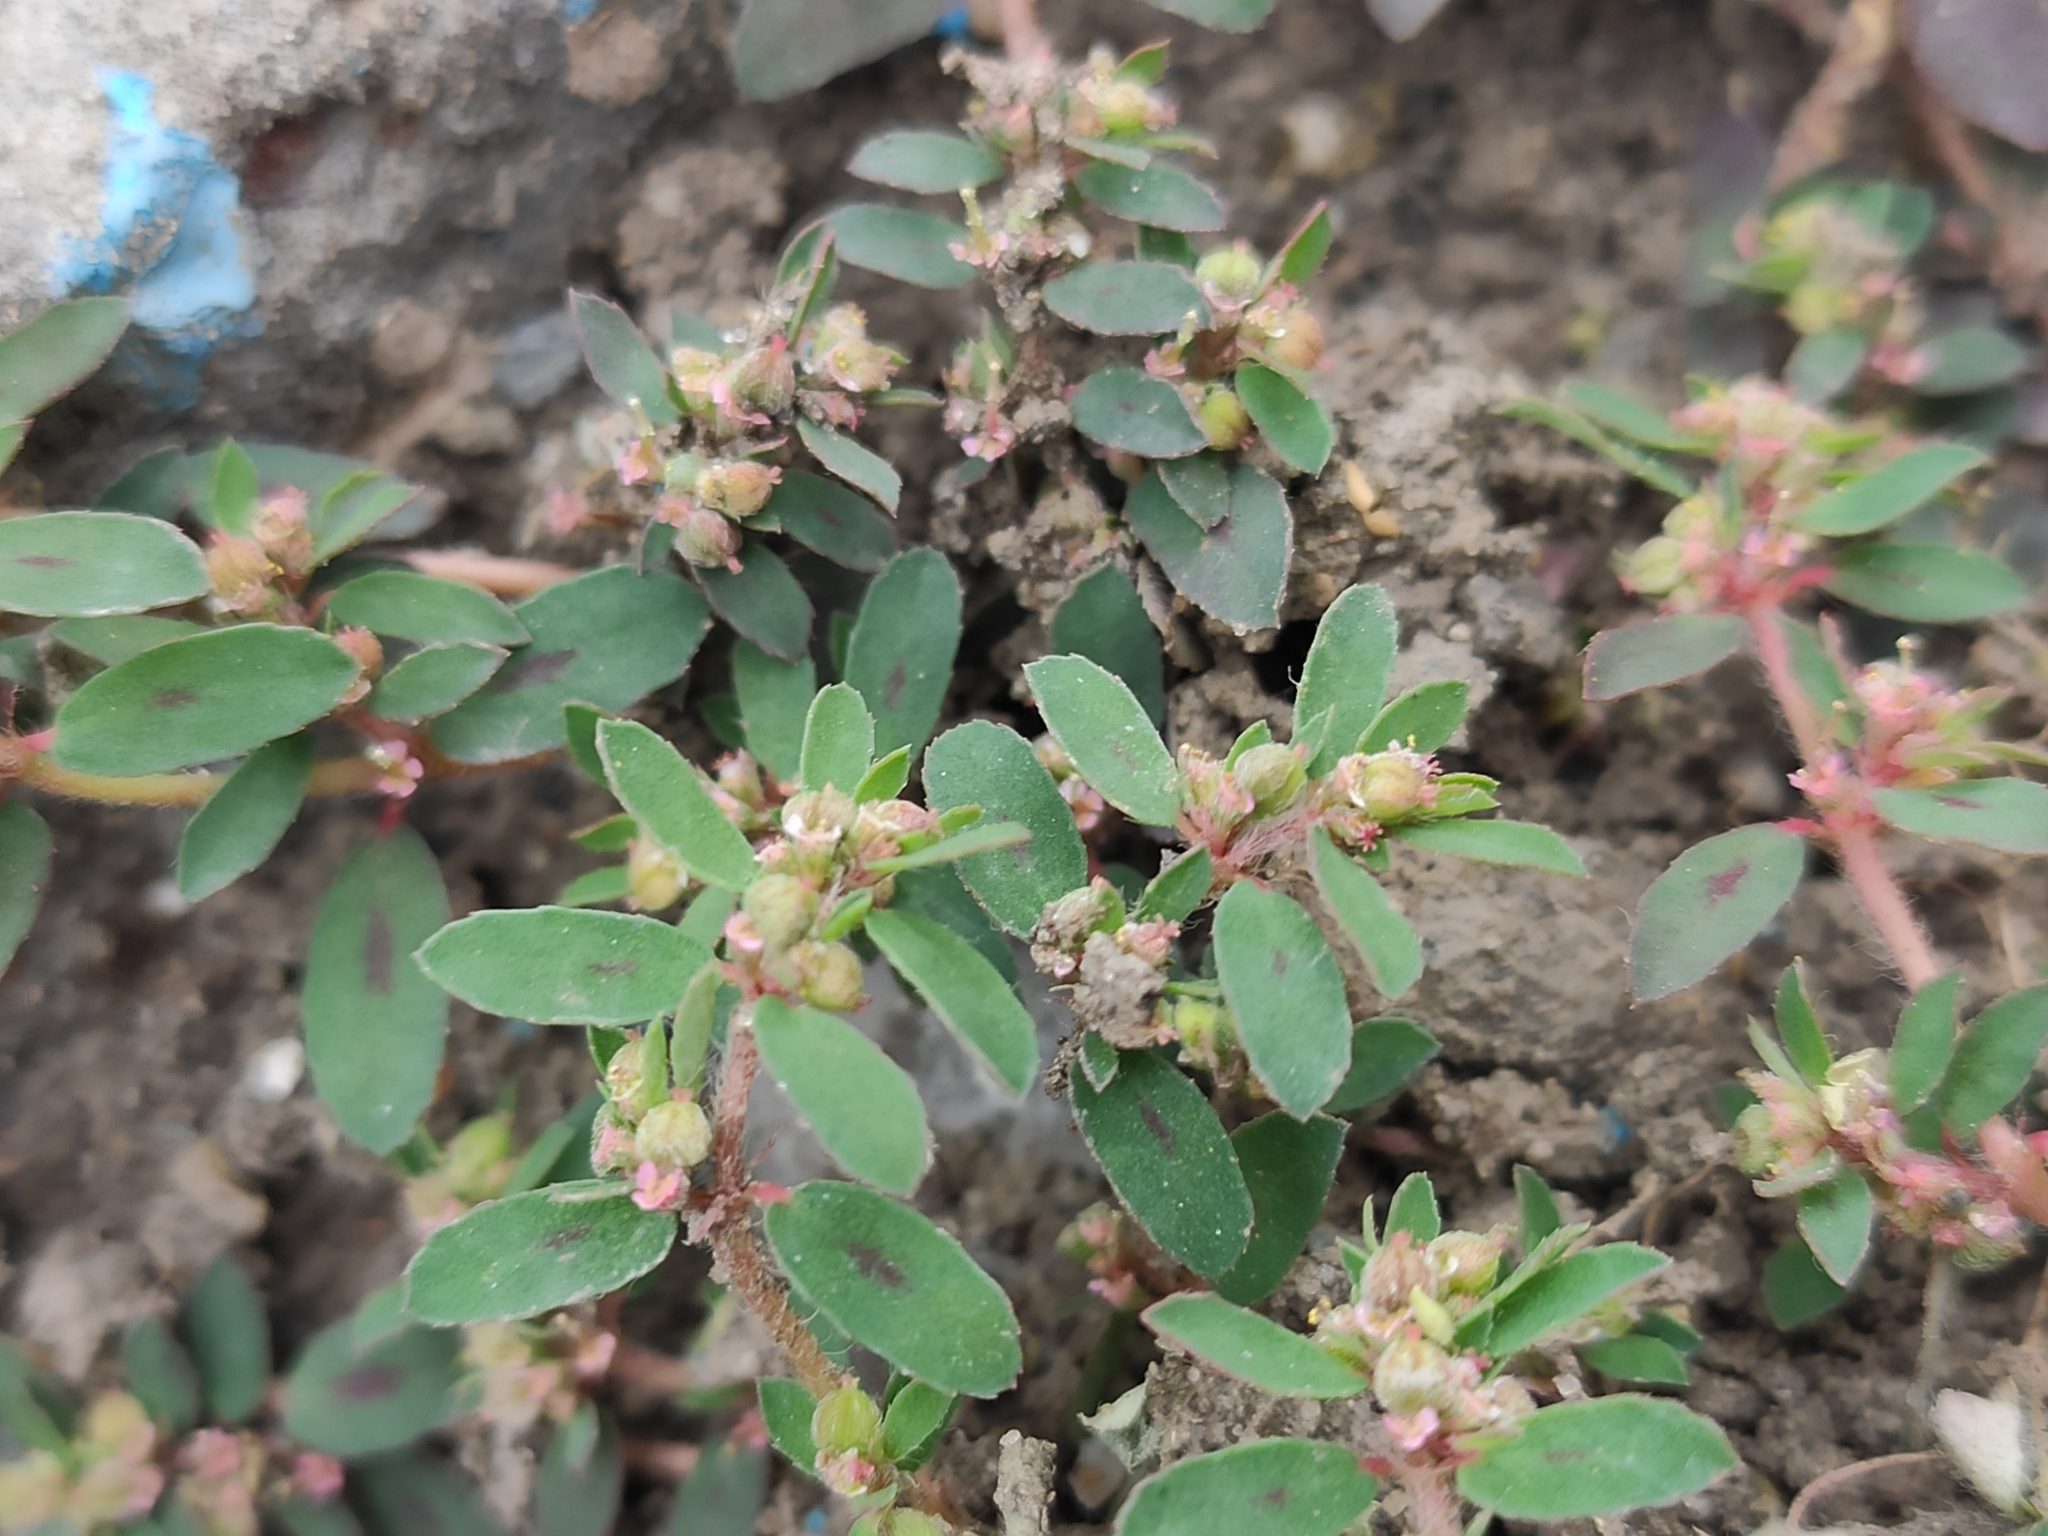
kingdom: Plantae
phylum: Tracheophyta
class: Magnoliopsida
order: Malpighiales
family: Euphorbiaceae
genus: Euphorbia
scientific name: Euphorbia maculata
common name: Spotted spurge
